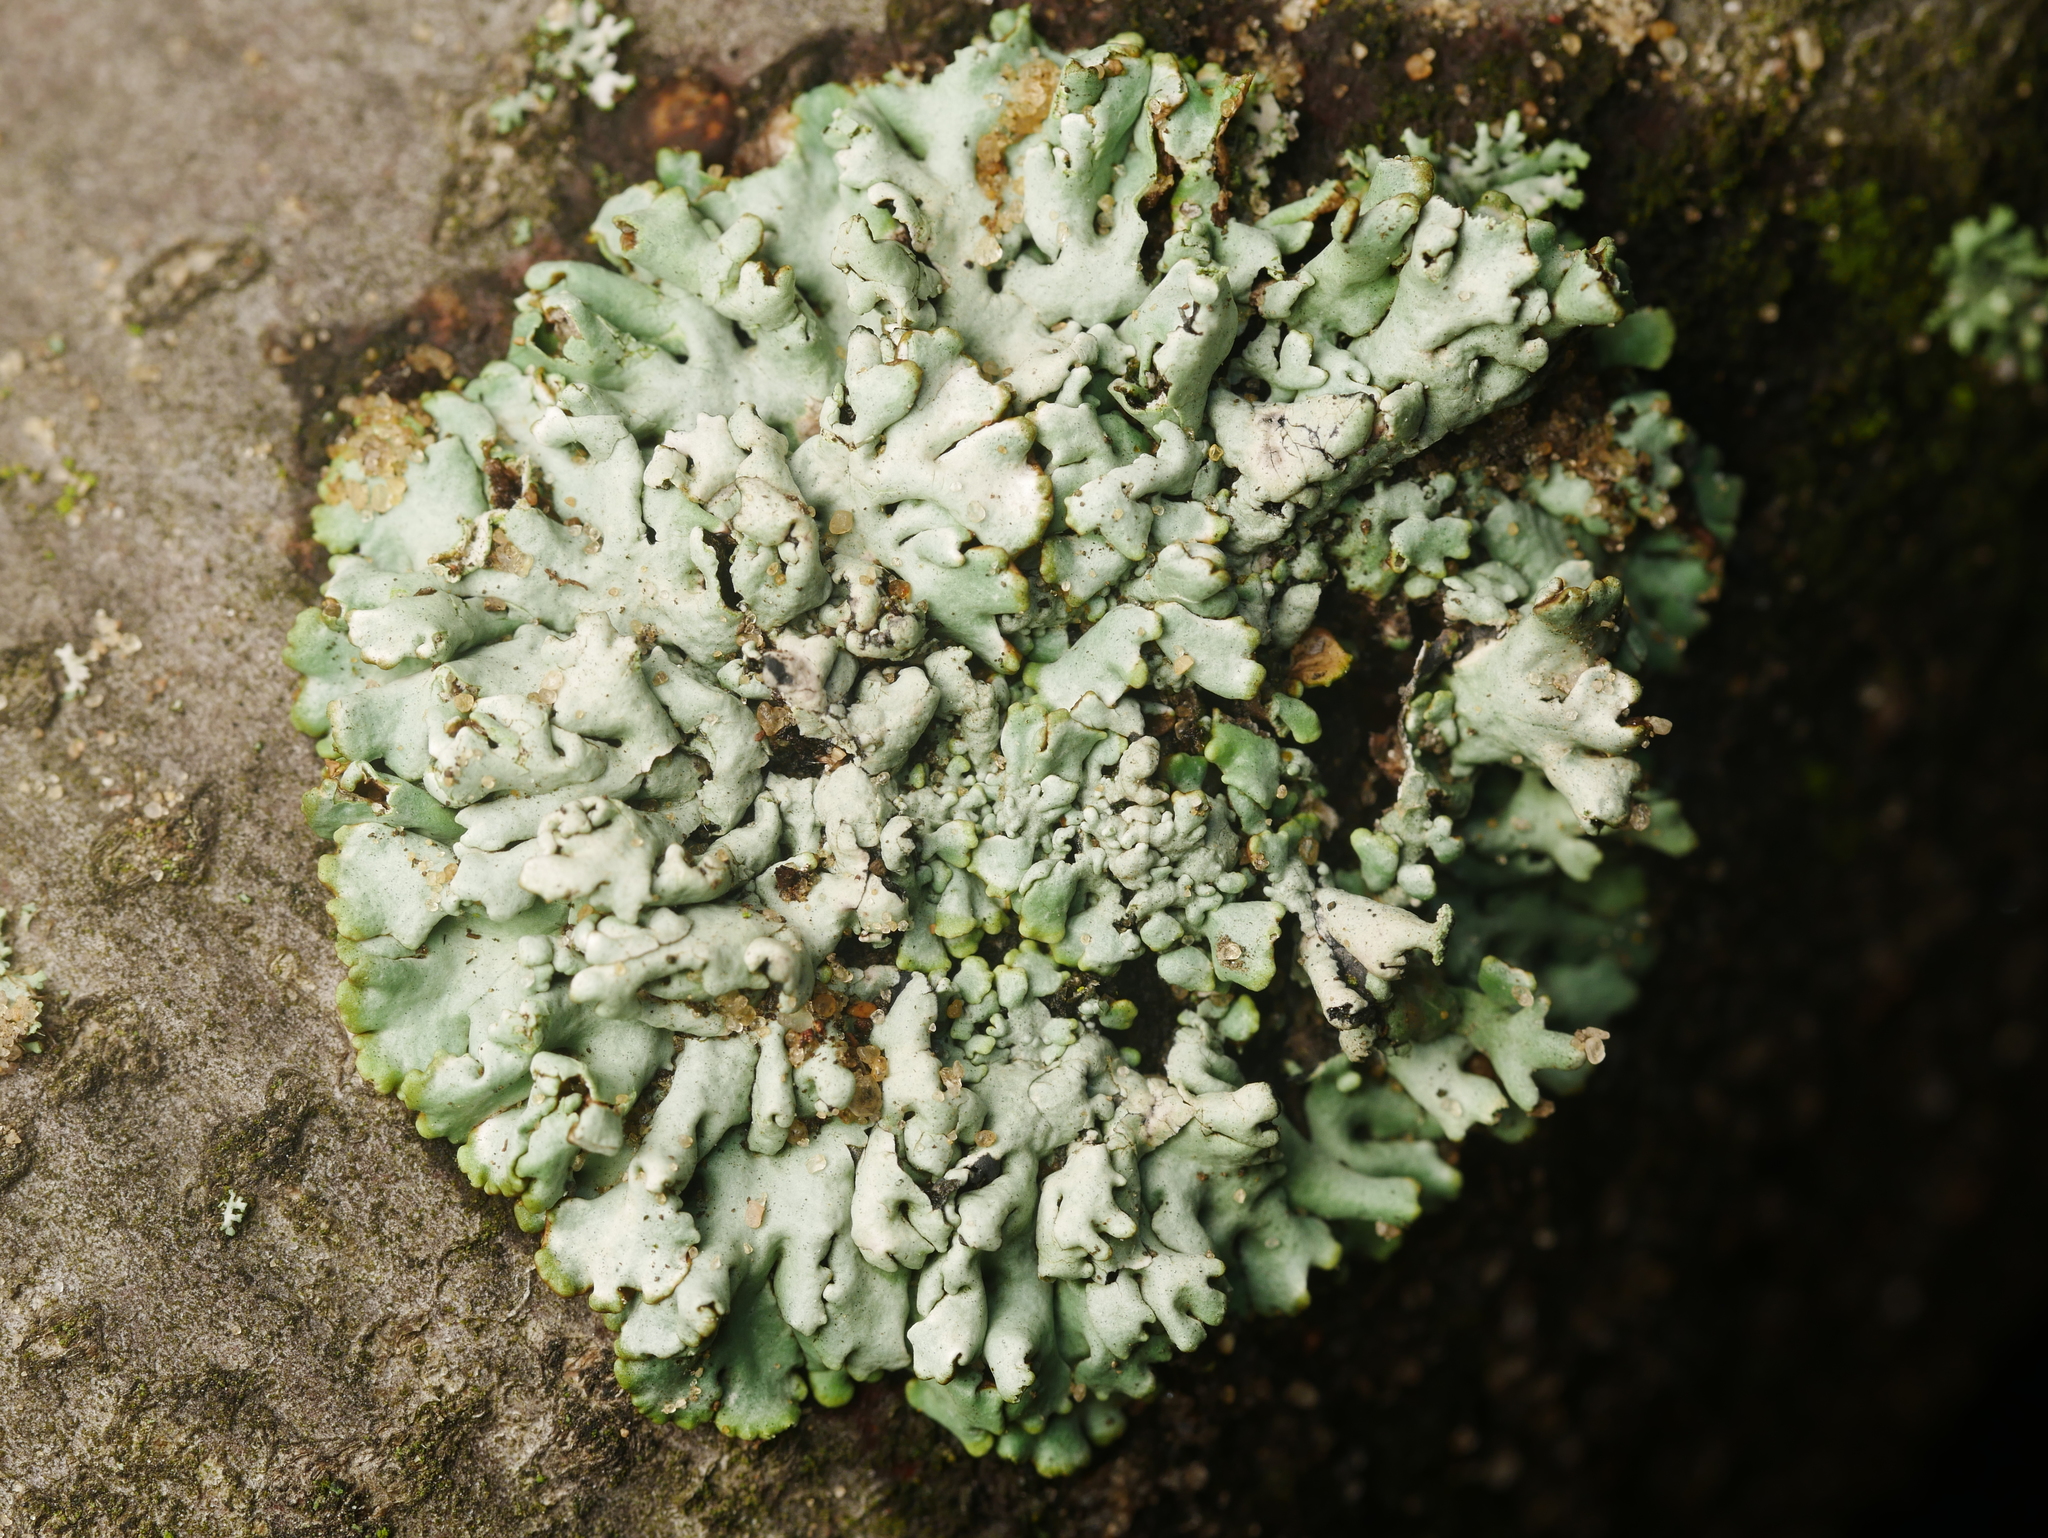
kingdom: Fungi
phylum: Ascomycota
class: Lecanoromycetes
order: Lecanorales
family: Parmeliaceae
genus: Hypogymnia
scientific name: Hypogymnia physodes
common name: Dark crottle
